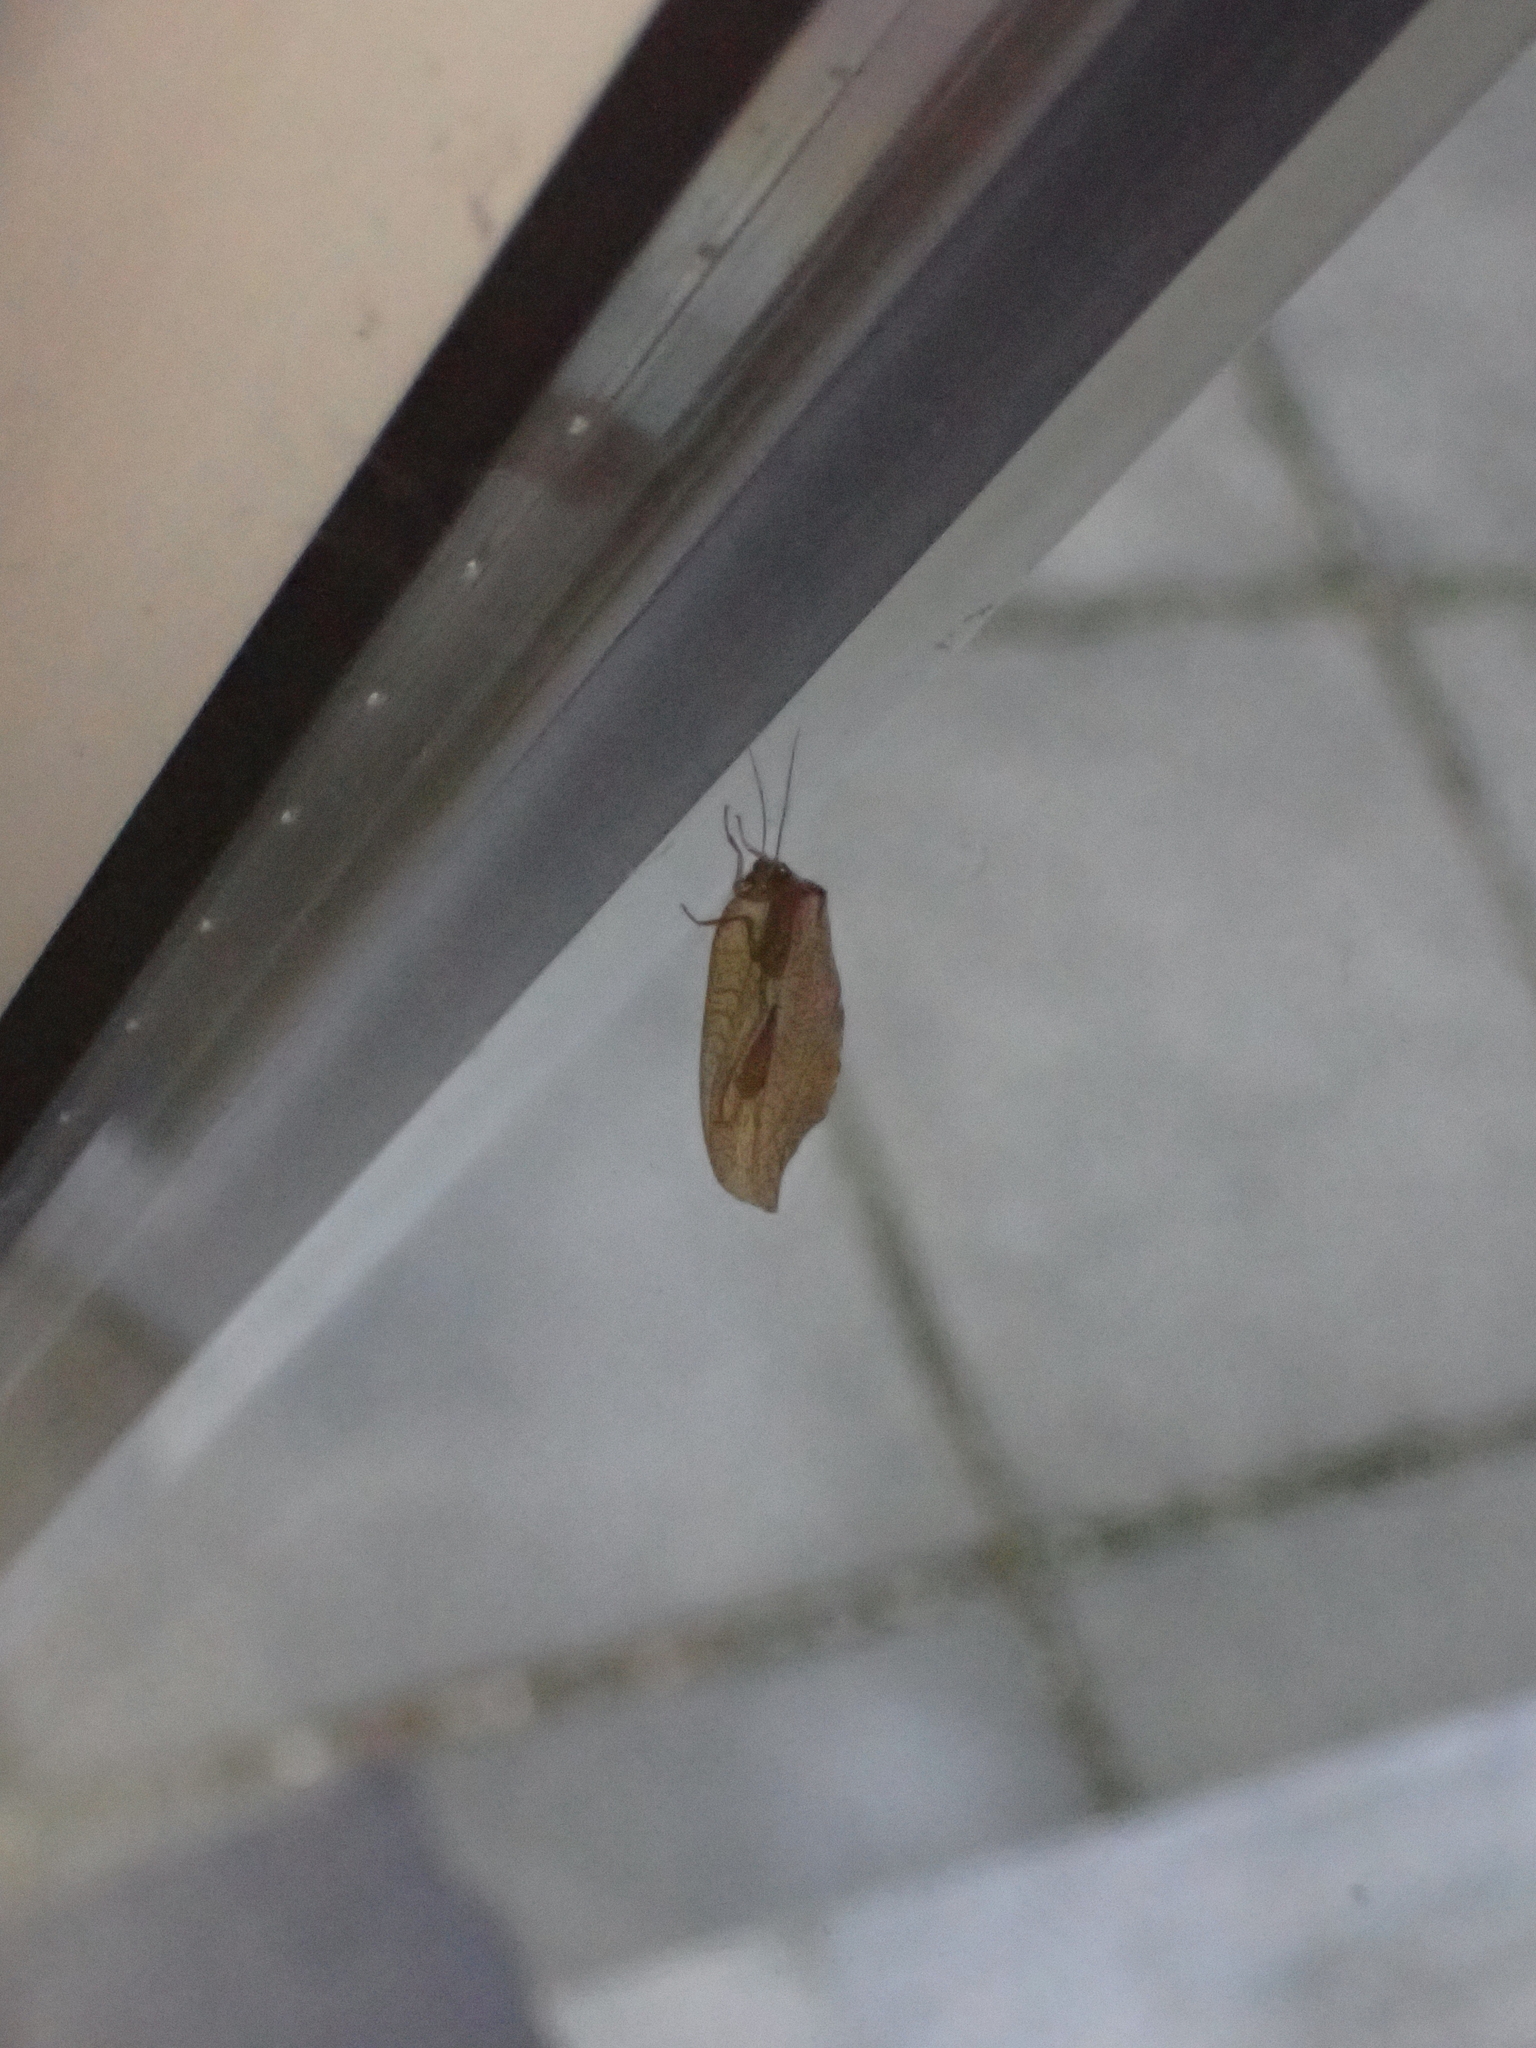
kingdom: Animalia
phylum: Arthropoda
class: Insecta
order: Neuroptera
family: Hemerobiidae
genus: Drepanepteryx
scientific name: Drepanepteryx phalaenoides
